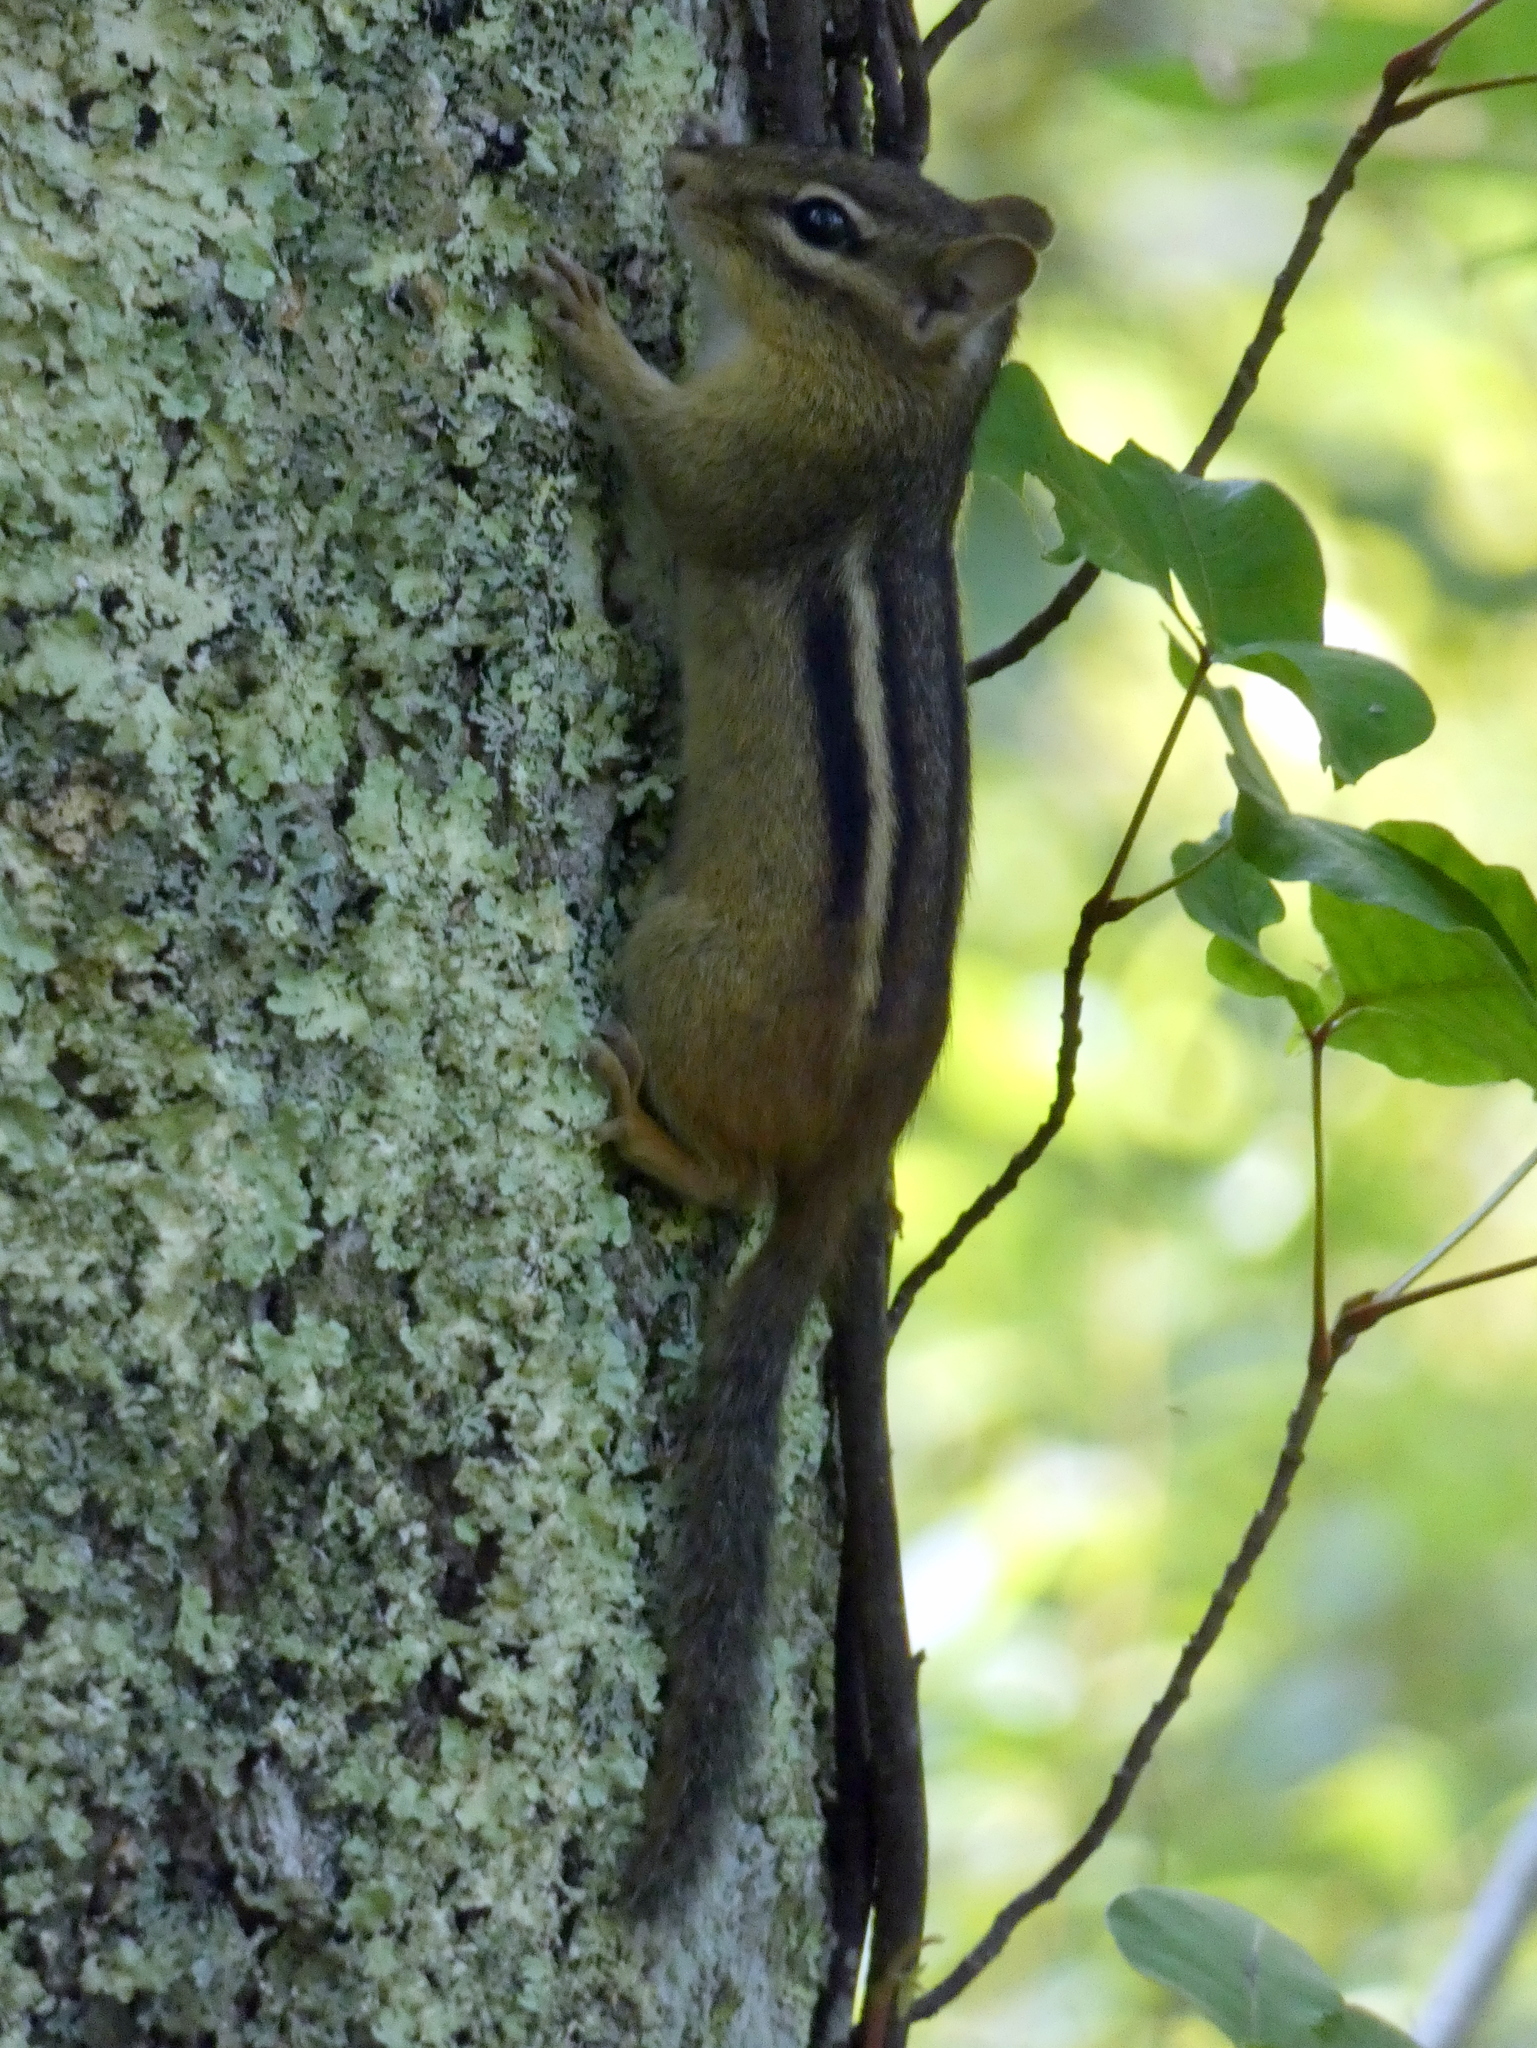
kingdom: Animalia
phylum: Chordata
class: Mammalia
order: Rodentia
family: Sciuridae
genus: Tamias
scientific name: Tamias striatus
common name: Eastern chipmunk
